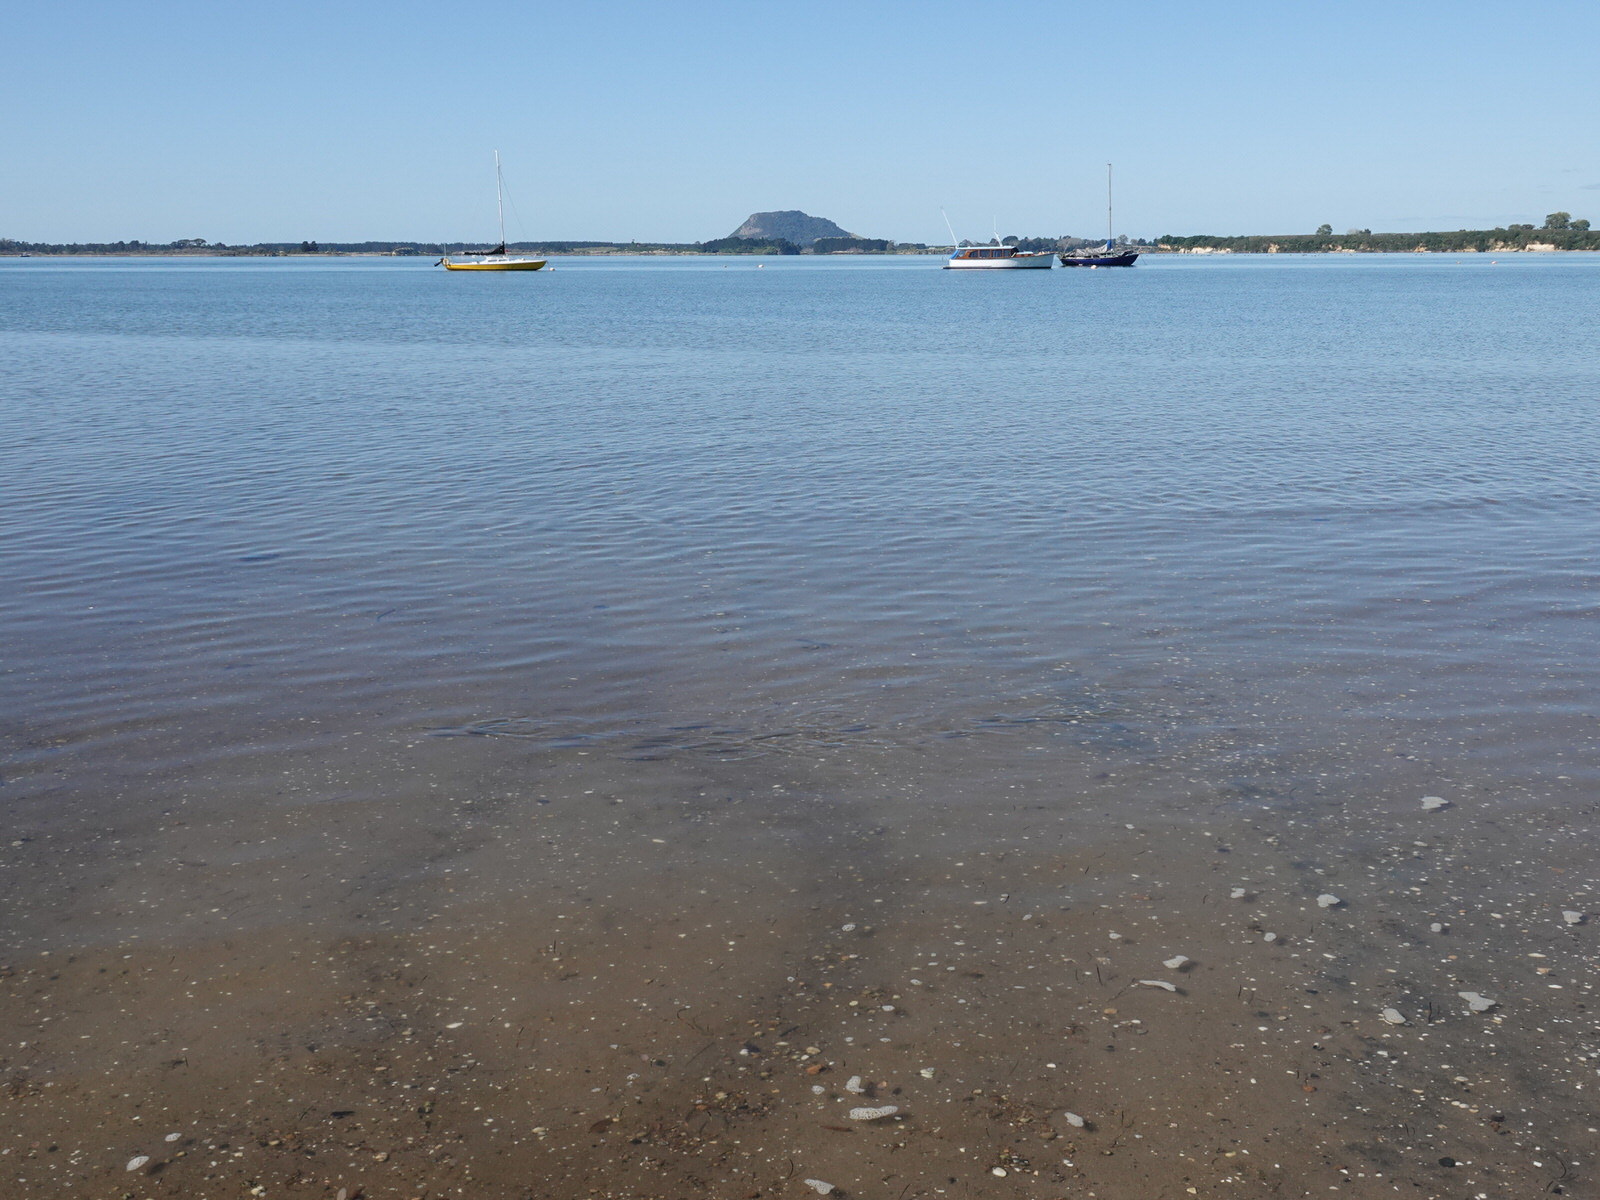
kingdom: Animalia
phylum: Chordata
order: Mugiliformes
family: Mugilidae
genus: Mugil
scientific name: Mugil cephalus
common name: Grey mullet
